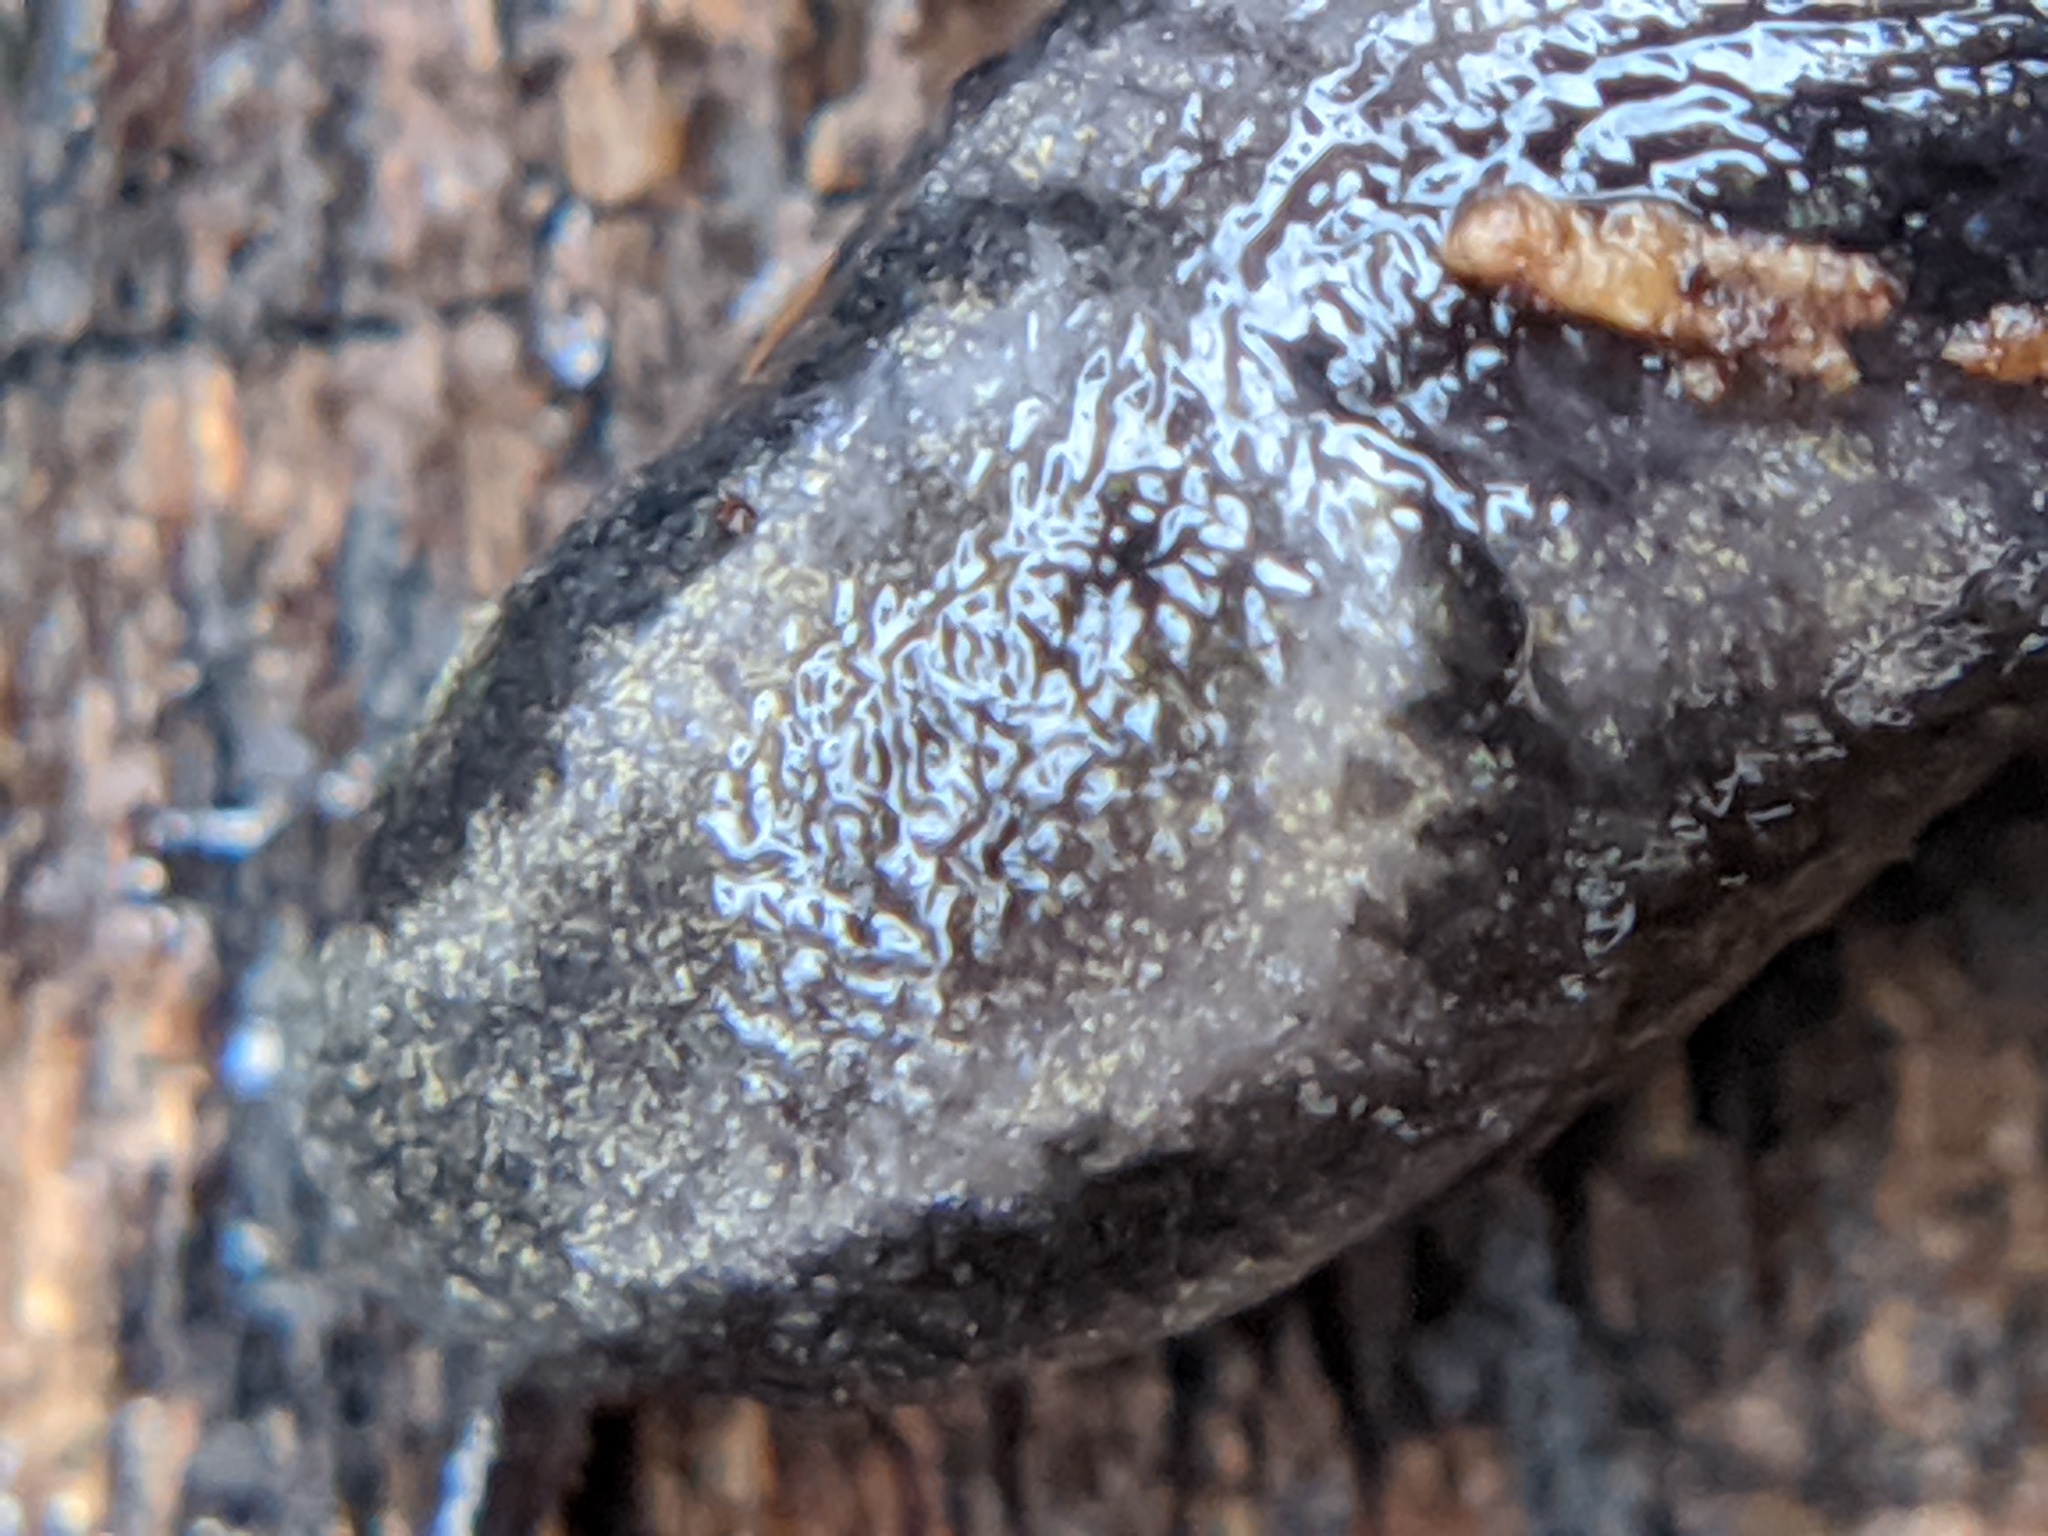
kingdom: Animalia
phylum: Mollusca
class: Gastropoda
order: Stylommatophora
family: Arionidae
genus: Arion
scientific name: Arion hortensis
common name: Garden arion
